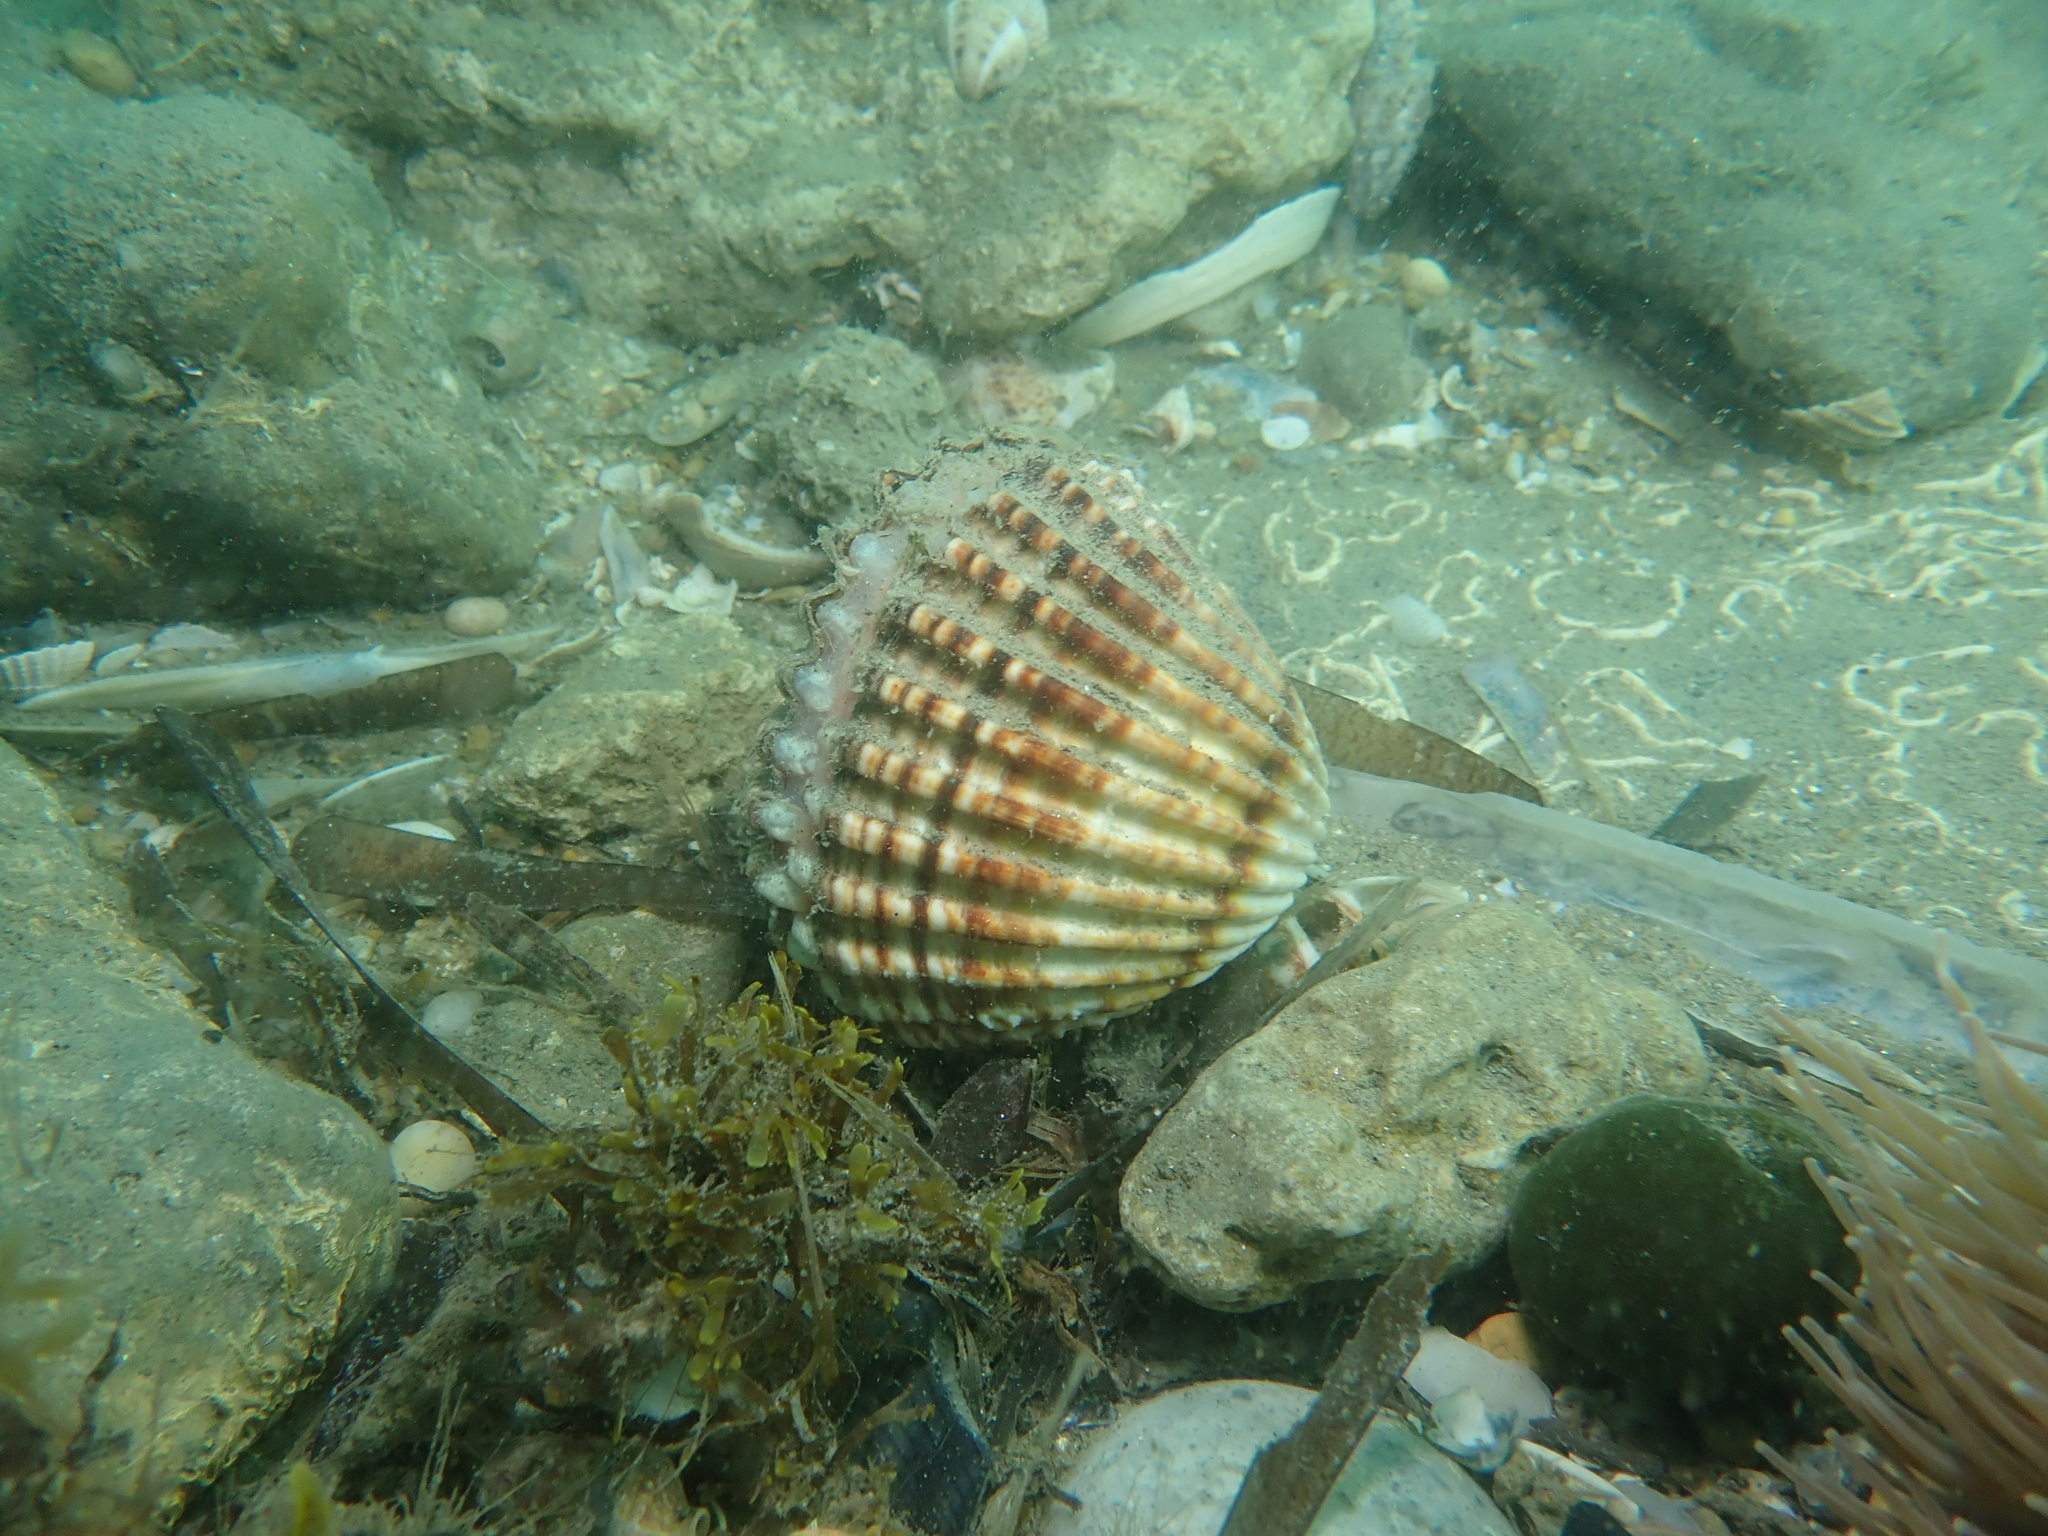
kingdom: Animalia
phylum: Mollusca
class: Bivalvia
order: Cardiida
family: Cardiidae
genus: Acanthocardia
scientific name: Acanthocardia tuberculata
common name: Rough cockle
